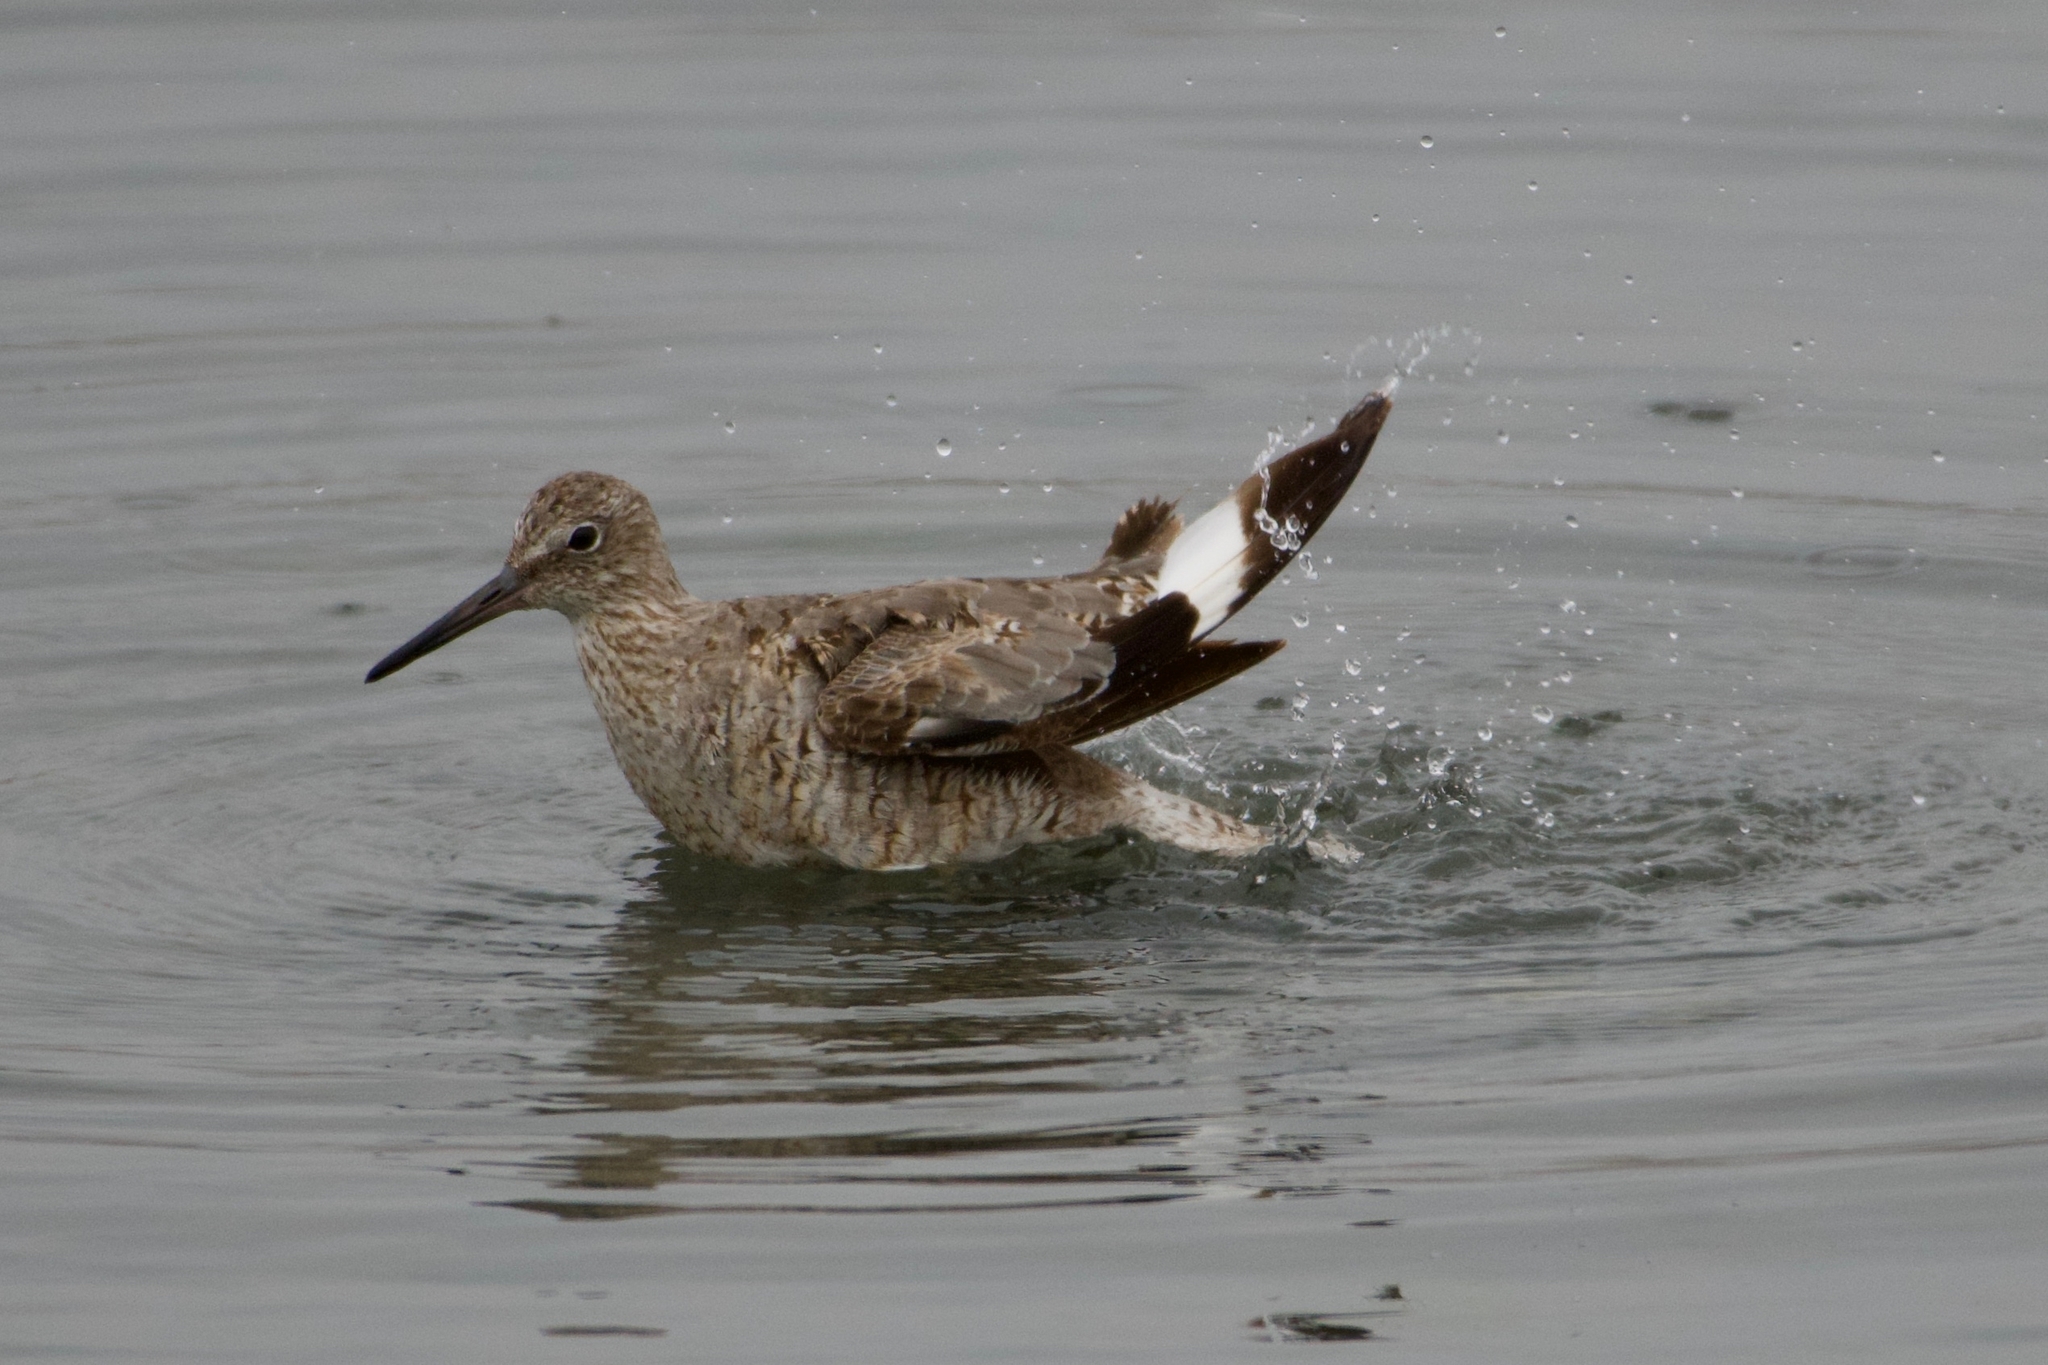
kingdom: Animalia
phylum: Chordata
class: Aves
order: Charadriiformes
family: Scolopacidae
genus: Tringa
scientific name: Tringa semipalmata
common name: Willet
